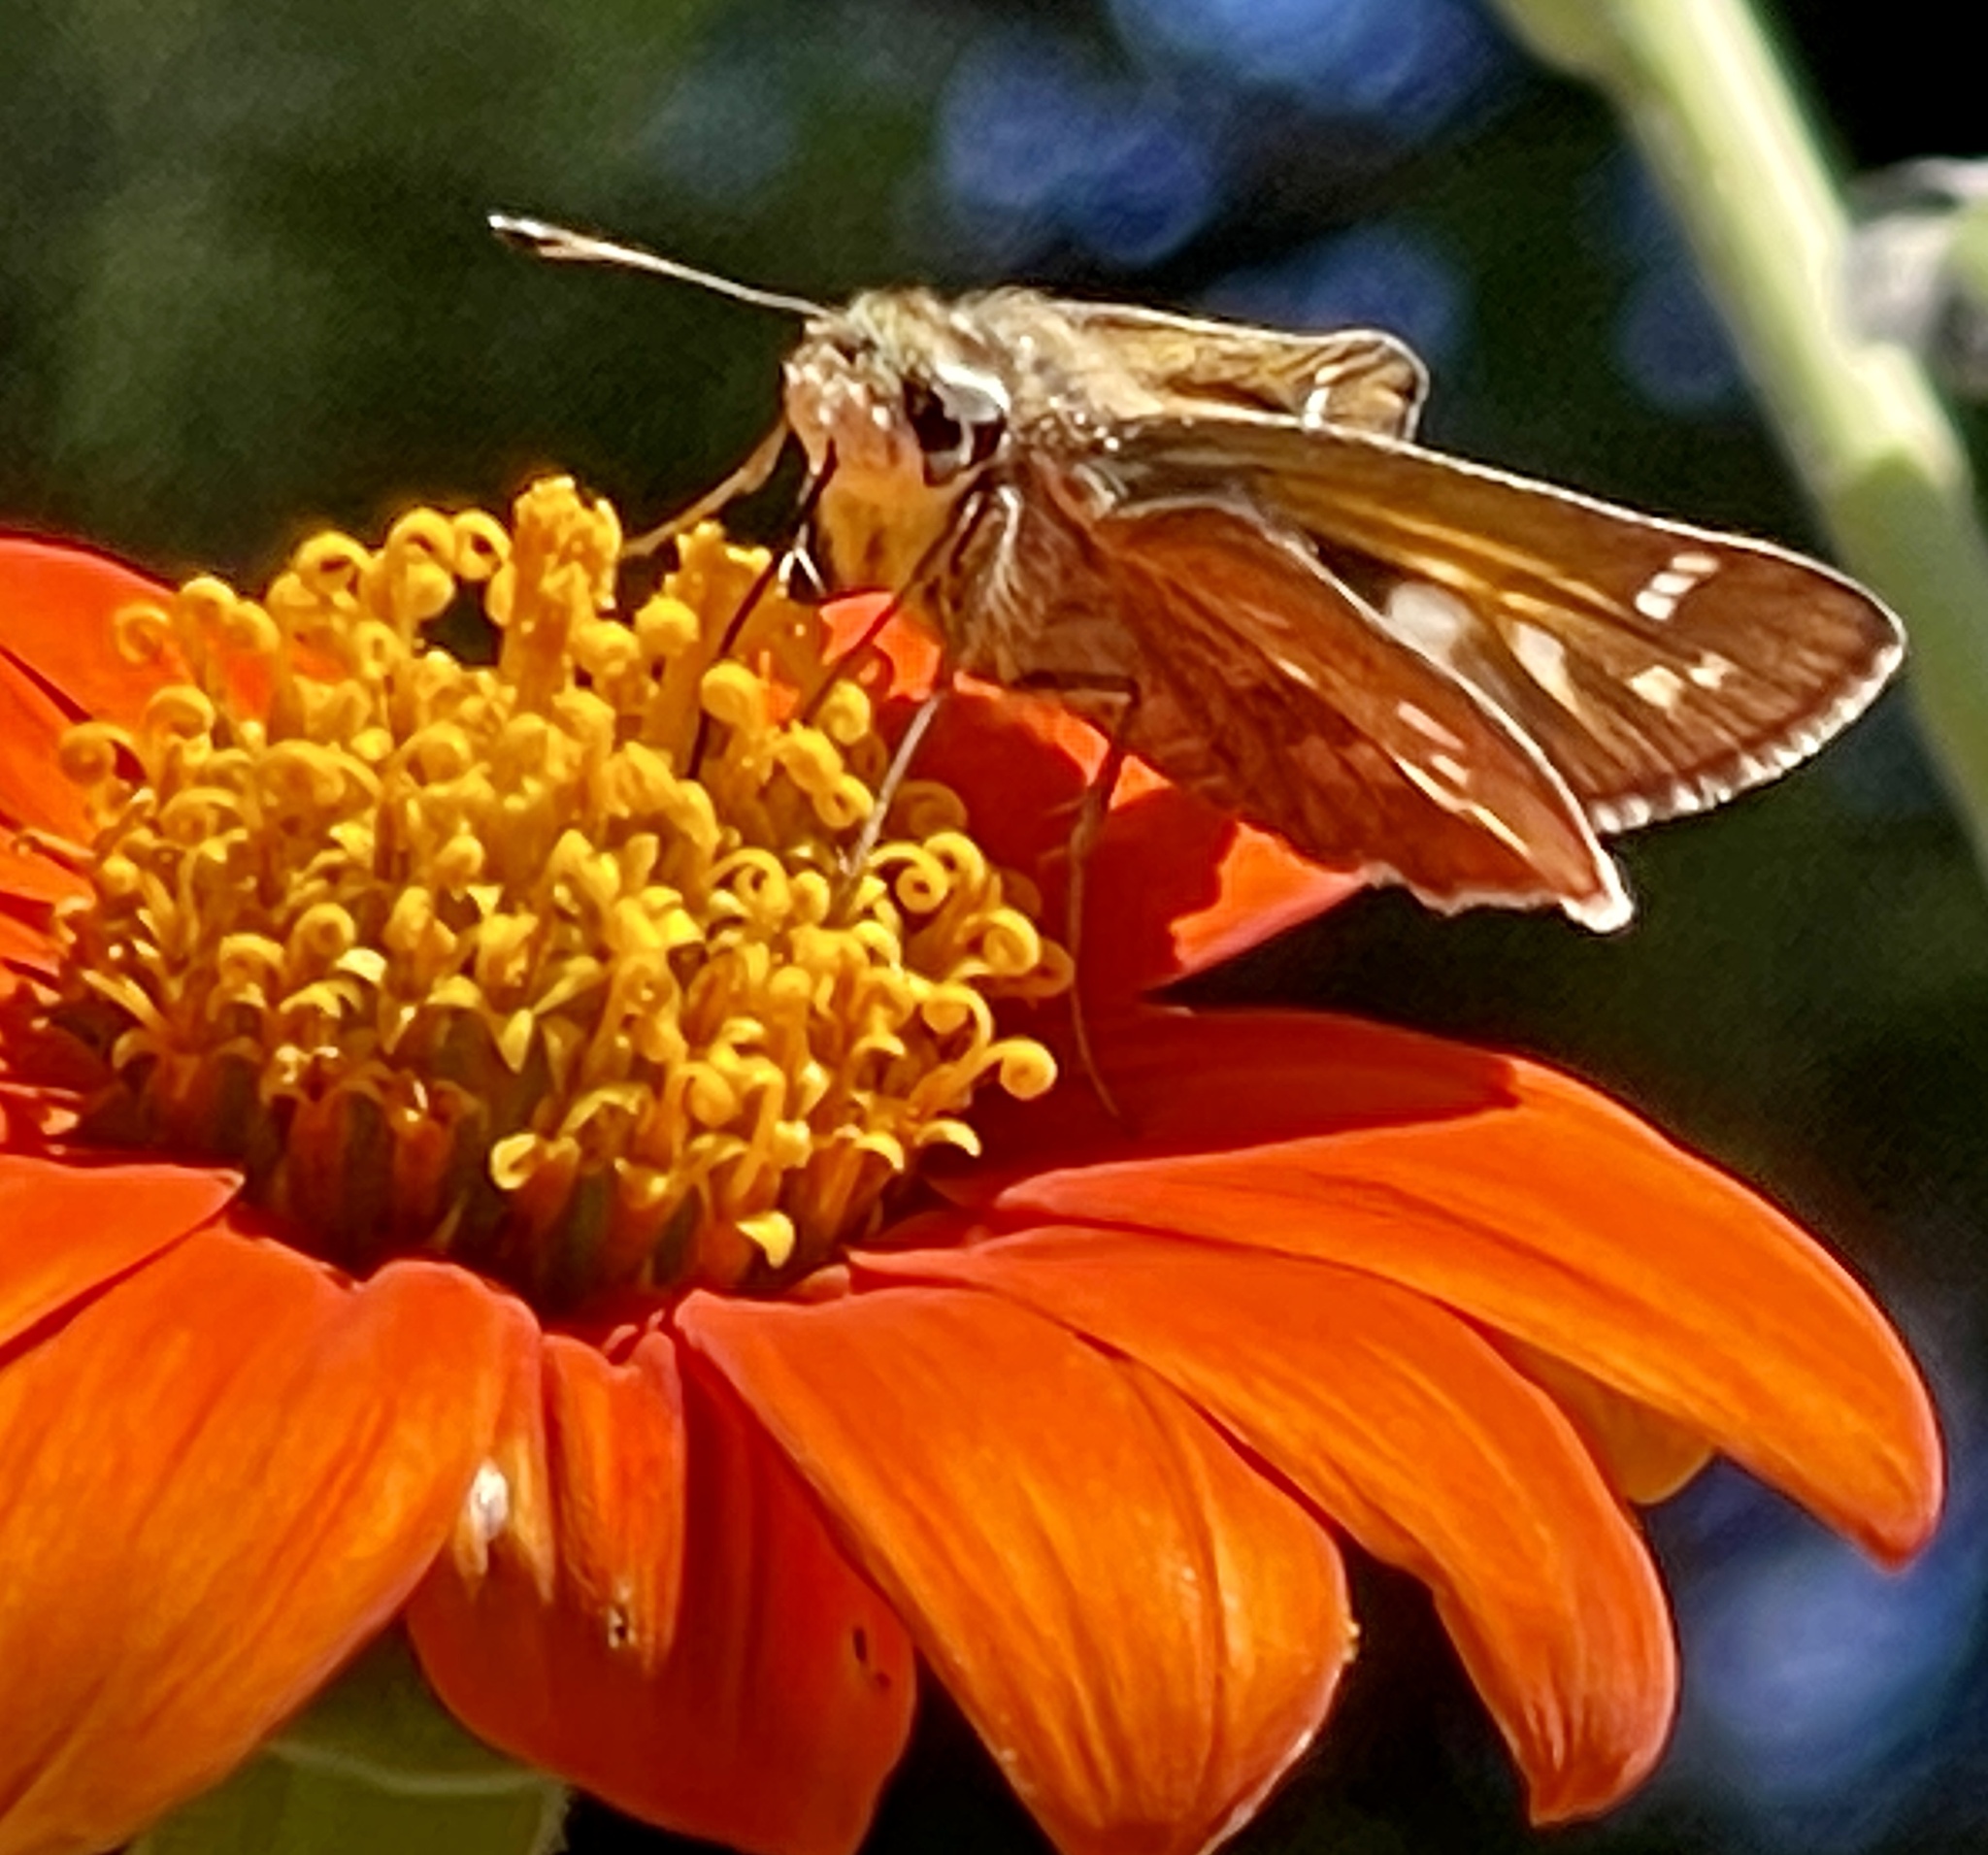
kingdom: Animalia
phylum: Arthropoda
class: Insecta
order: Lepidoptera
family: Hesperiidae
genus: Atalopedes
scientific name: Atalopedes
